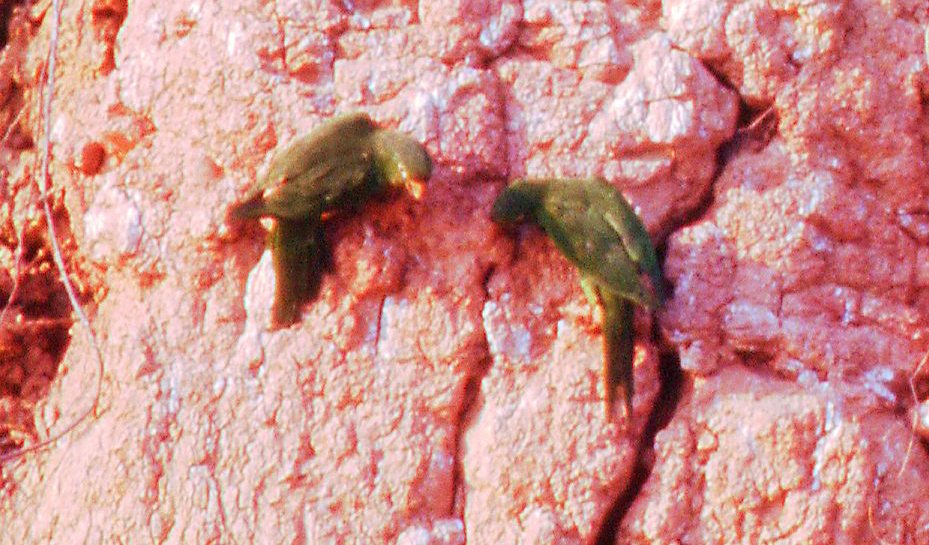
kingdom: Animalia
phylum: Chordata
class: Aves
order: Psittaciformes
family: Psittacidae
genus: Aratinga
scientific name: Aratinga leucophthalma
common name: White-eyed parakeet
